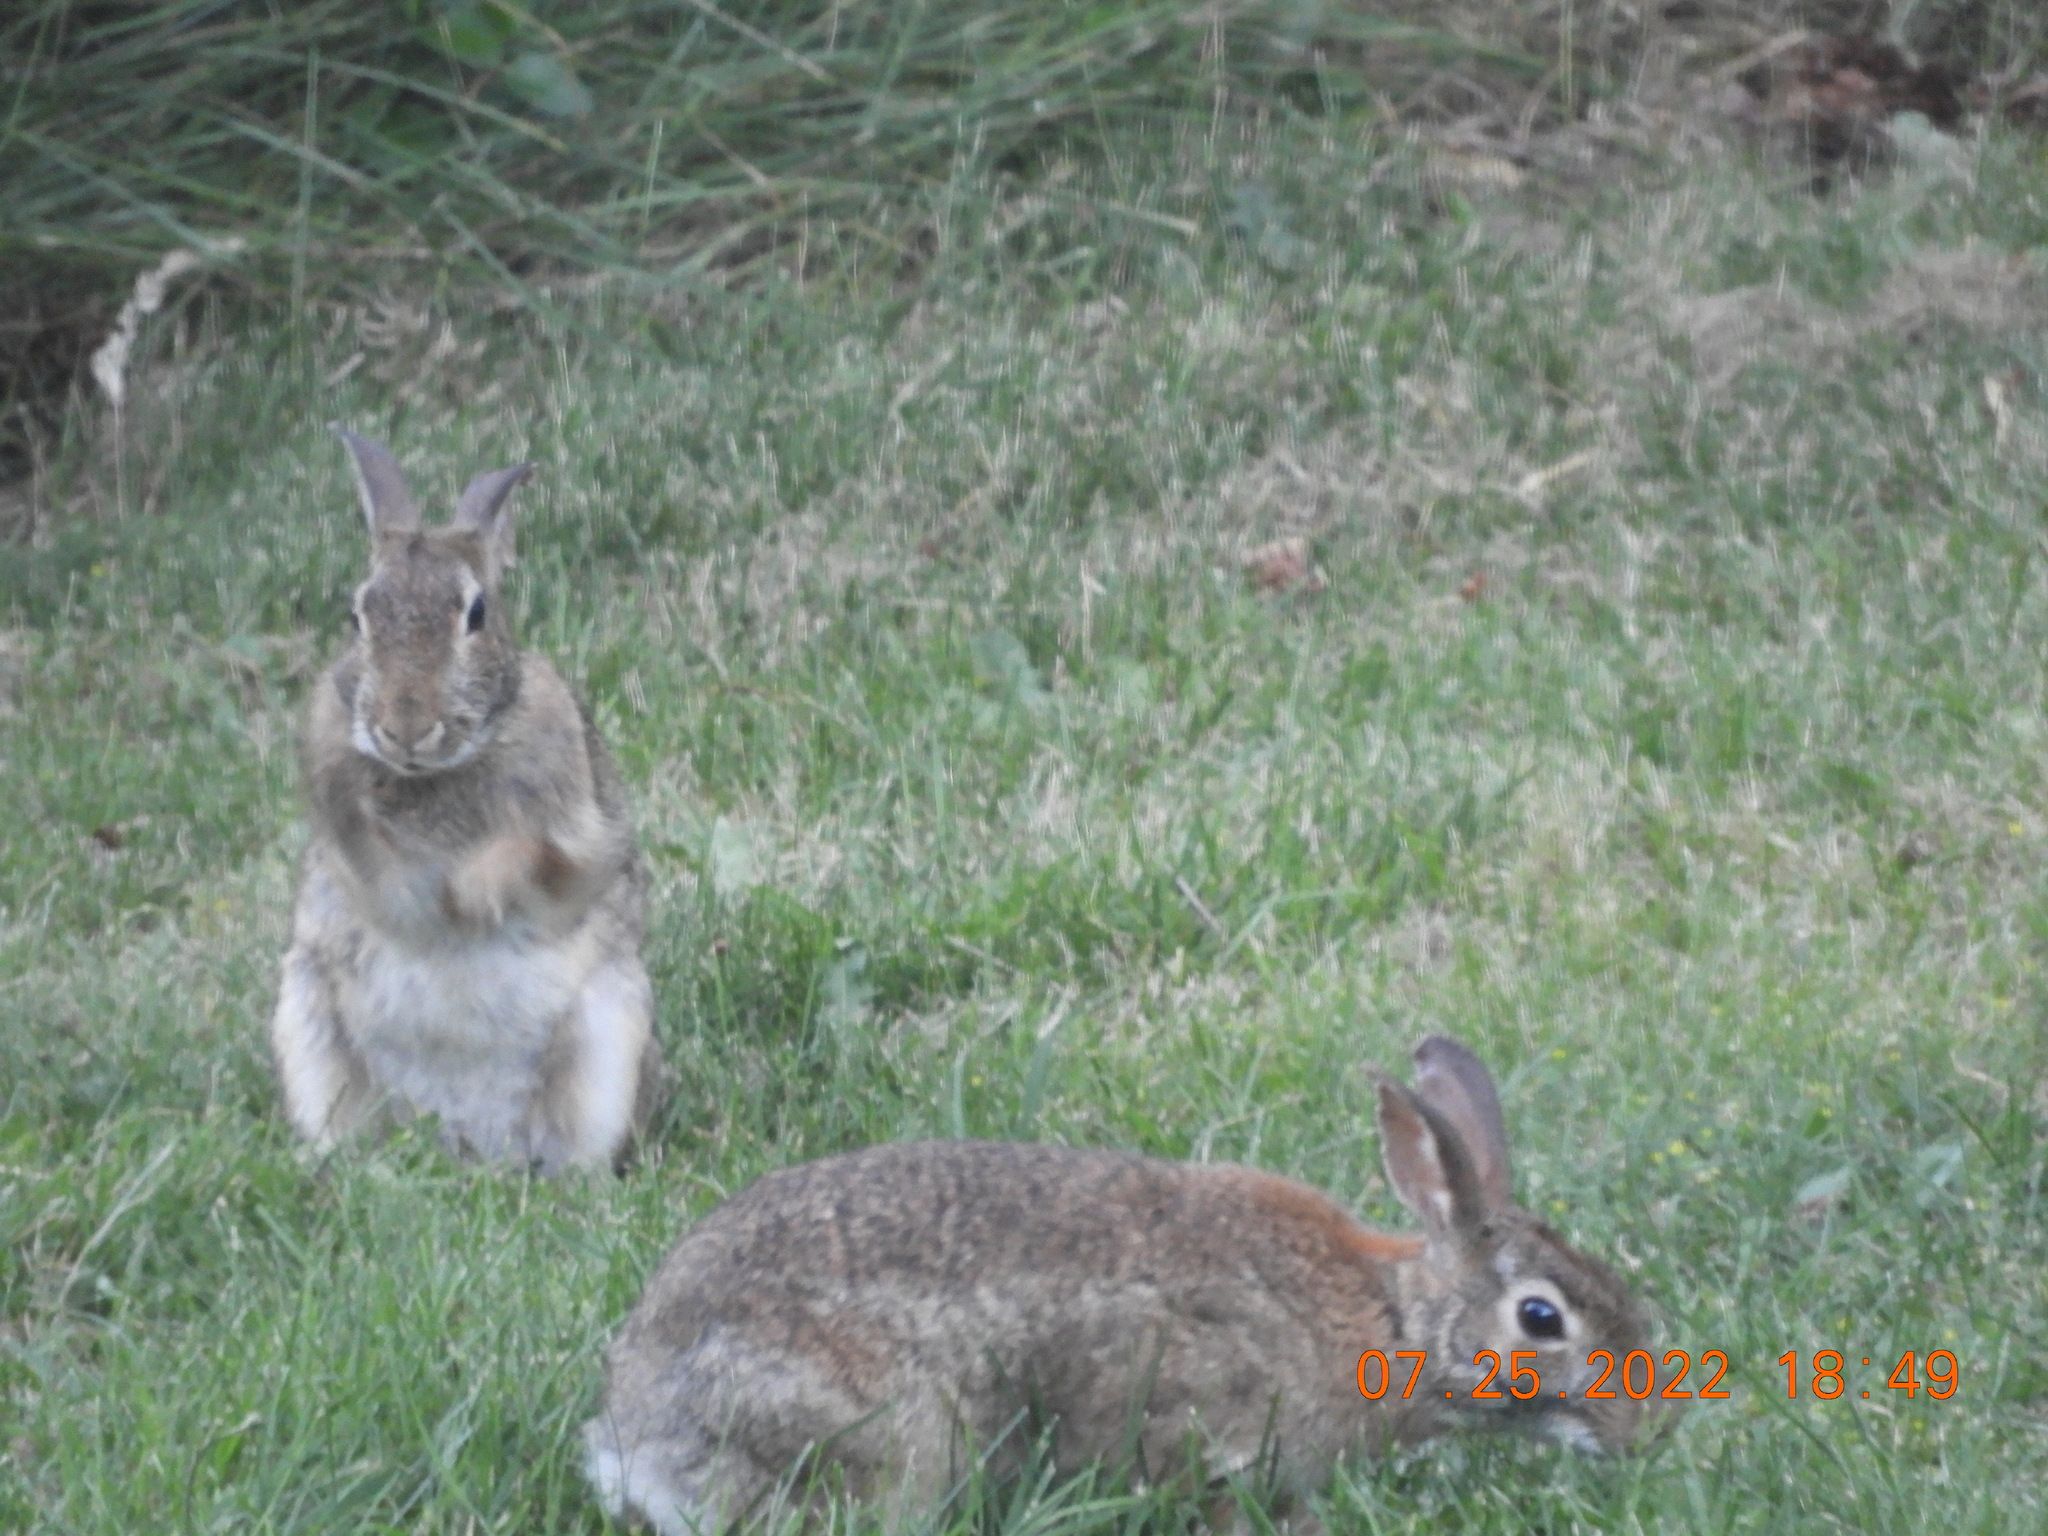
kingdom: Animalia
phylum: Chordata
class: Mammalia
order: Lagomorpha
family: Leporidae
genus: Sylvilagus
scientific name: Sylvilagus floridanus
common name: Eastern cottontail
